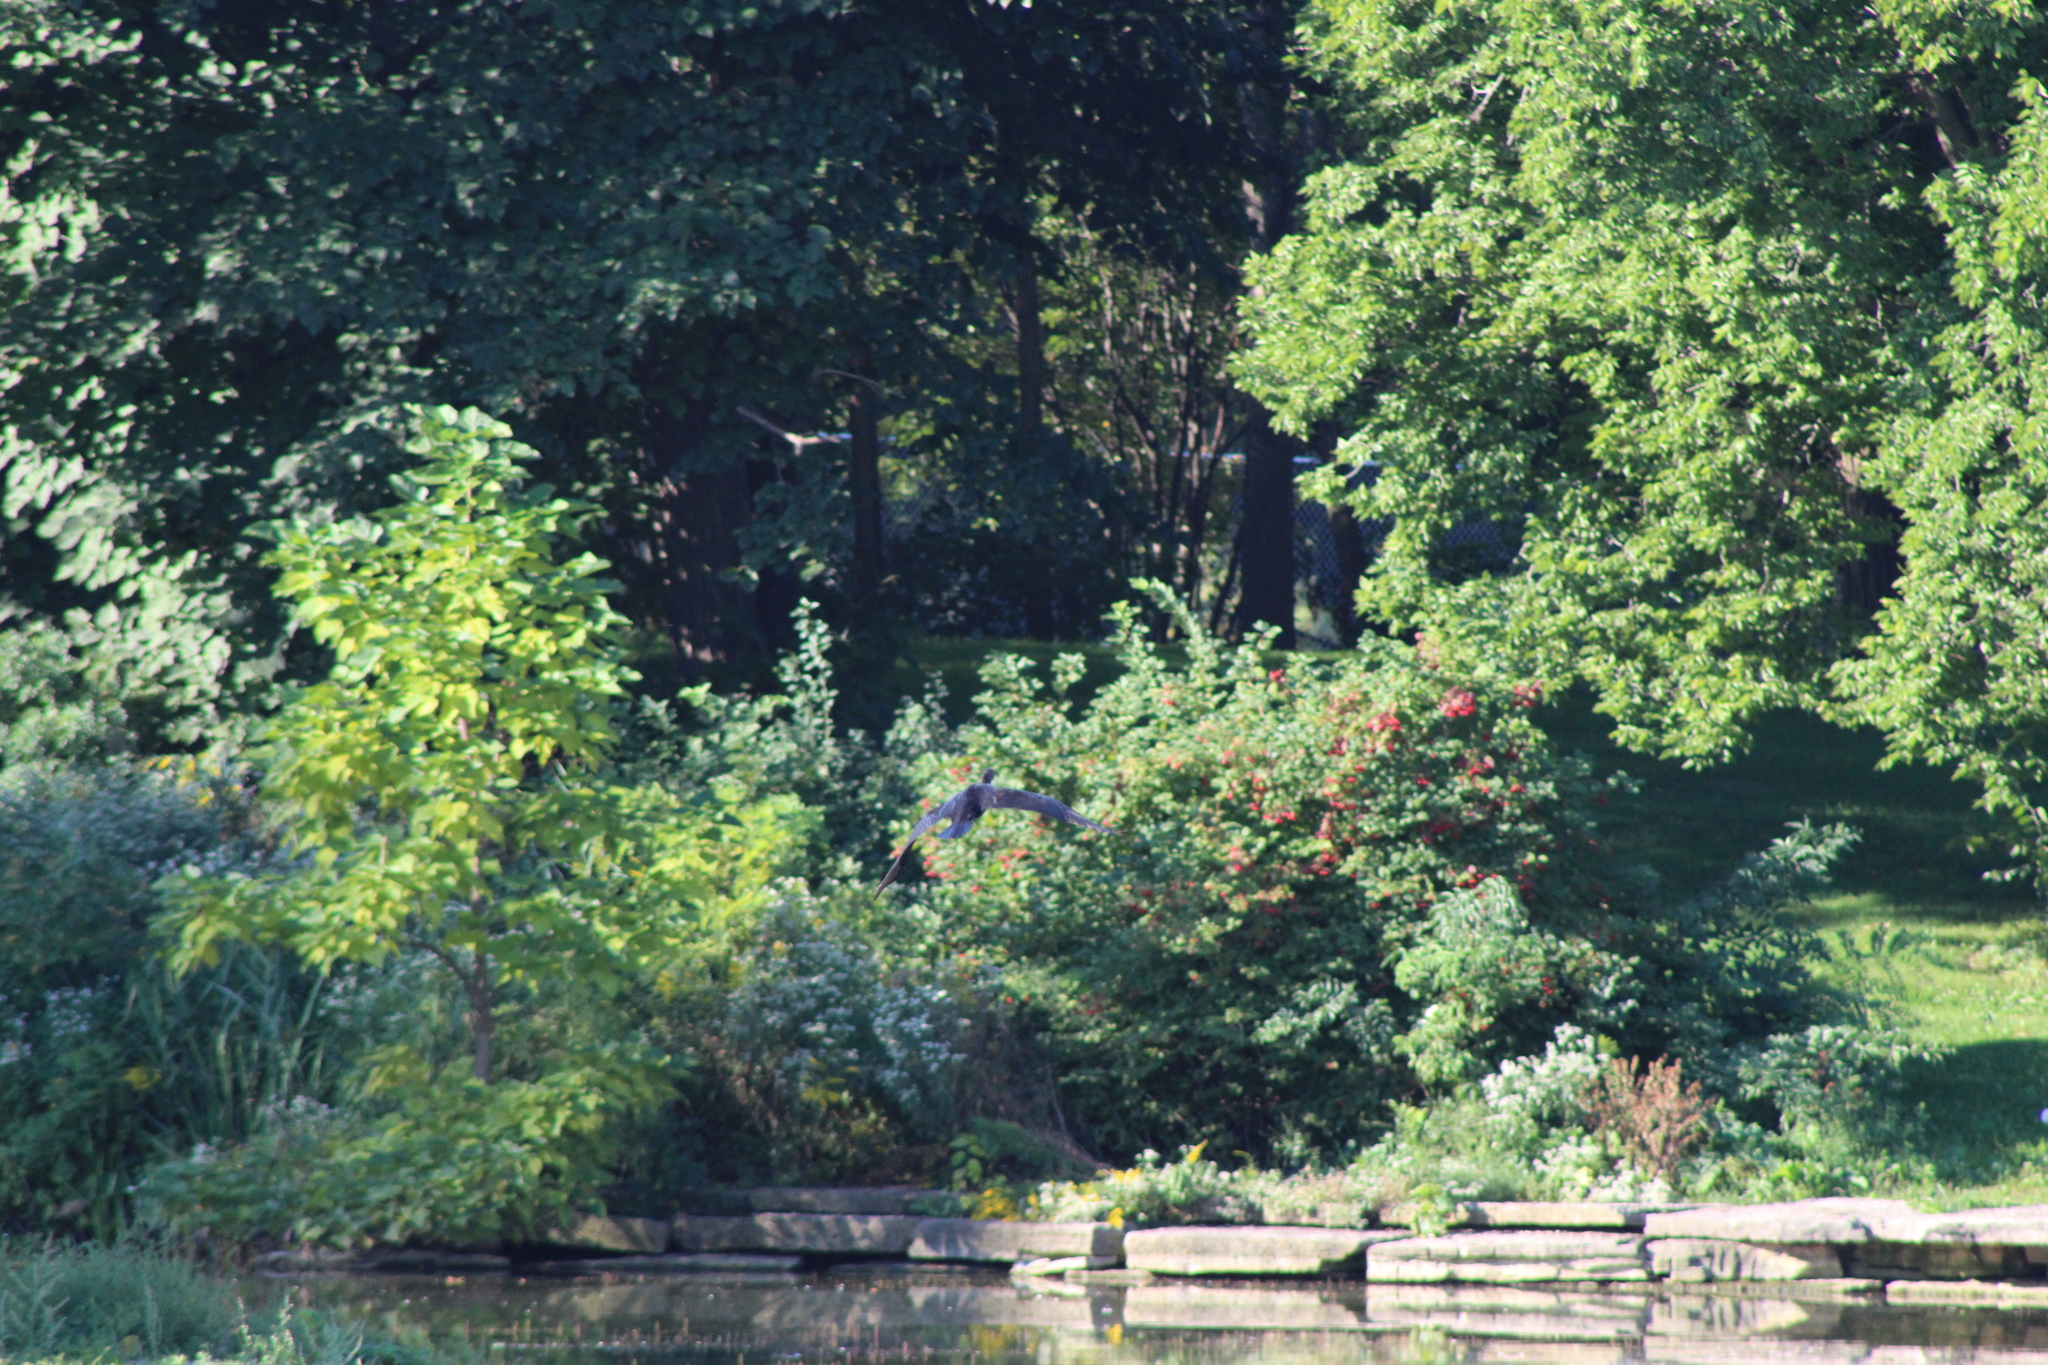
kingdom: Animalia
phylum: Chordata
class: Aves
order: Suliformes
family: Phalacrocoracidae
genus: Phalacrocorax
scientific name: Phalacrocorax auritus
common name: Double-crested cormorant
